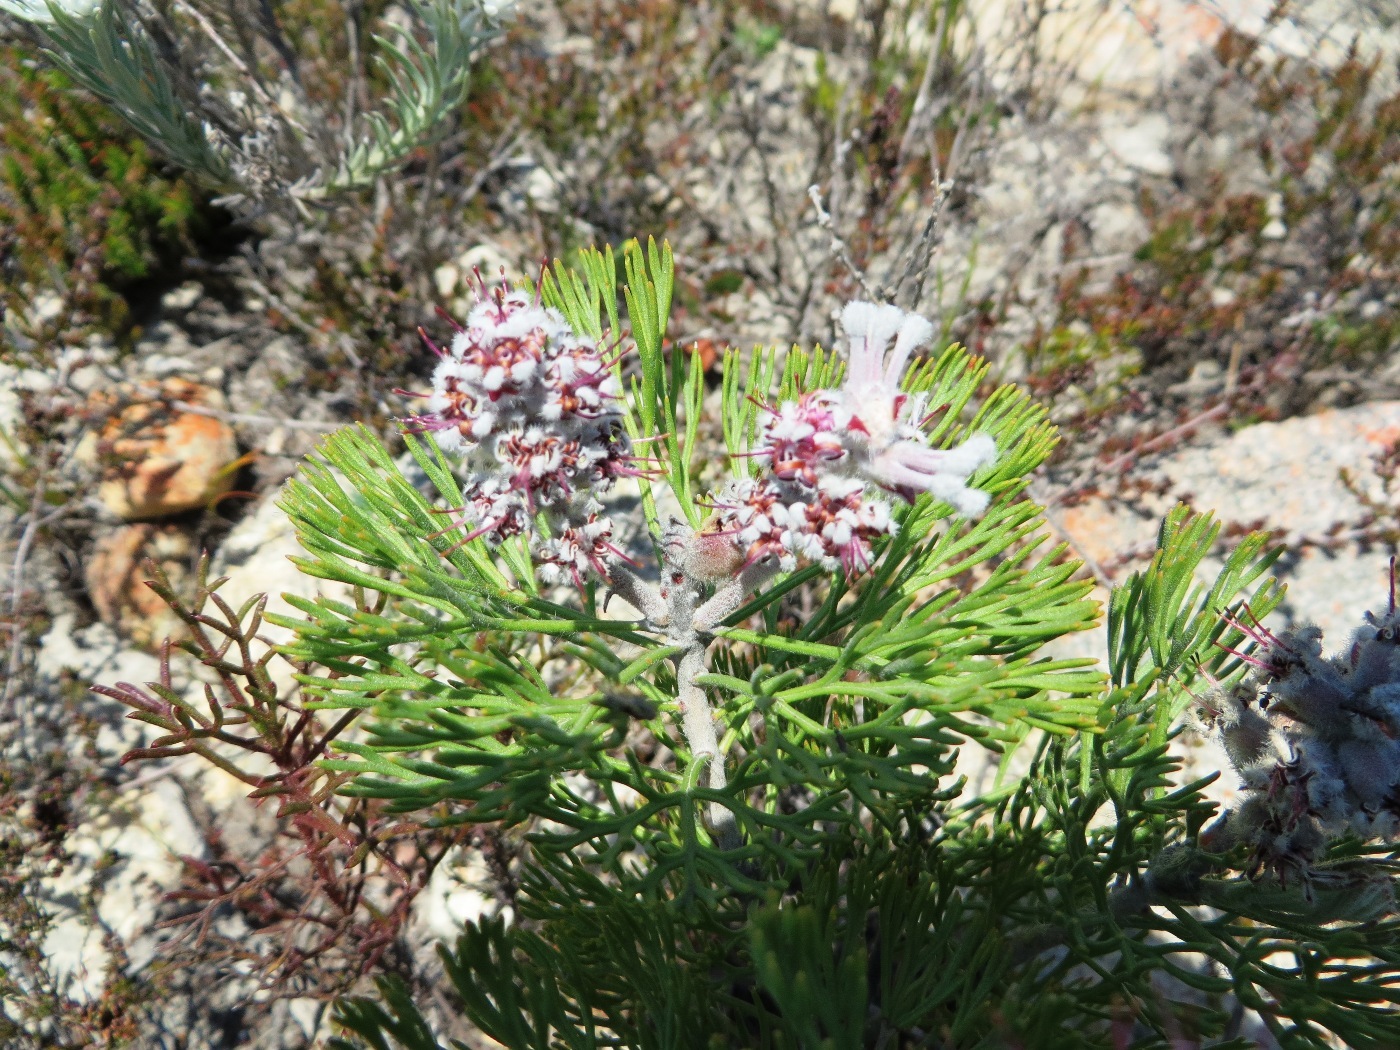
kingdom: Plantae
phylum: Tracheophyta
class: Magnoliopsida
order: Proteales
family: Proteaceae
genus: Paranomus
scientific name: Paranomus bolusii
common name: Overberg sceptre
